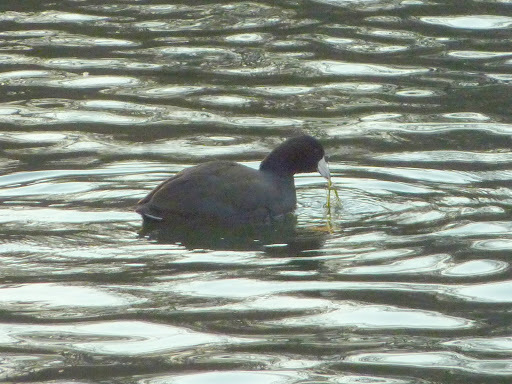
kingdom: Animalia
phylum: Chordata
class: Aves
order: Gruiformes
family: Rallidae
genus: Fulica
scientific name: Fulica americana
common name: American coot
